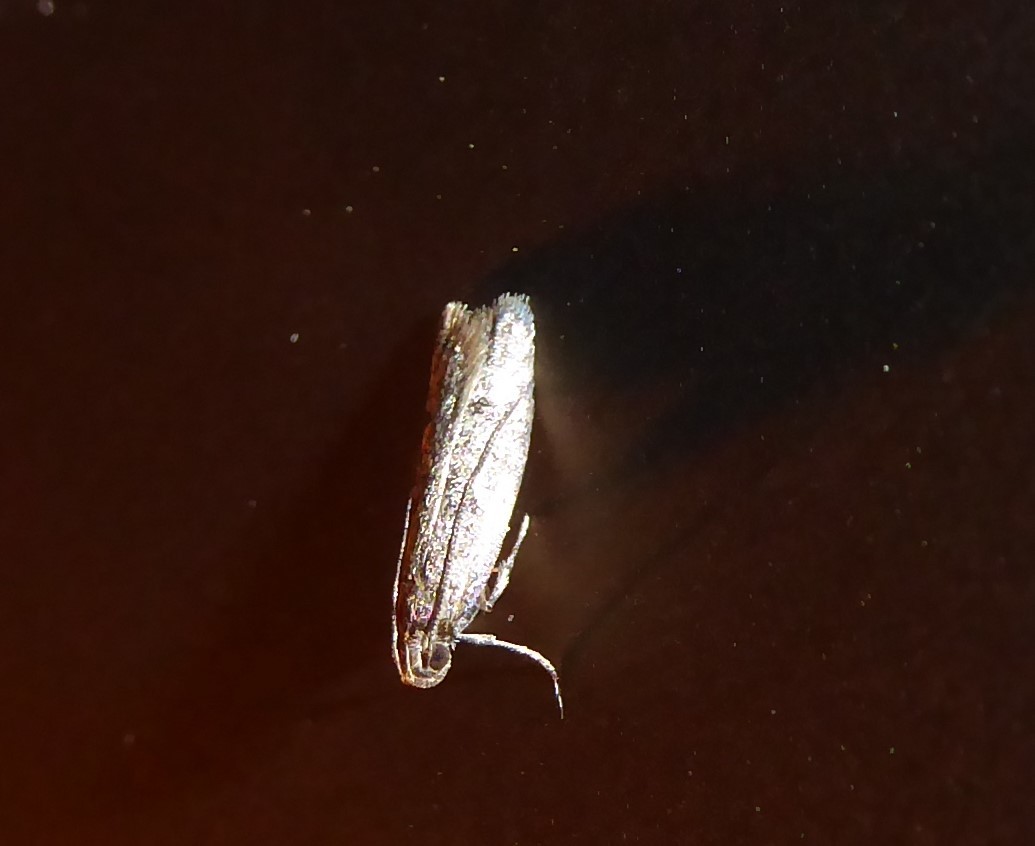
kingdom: Animalia
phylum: Arthropoda
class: Insecta
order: Lepidoptera
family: Oecophoridae
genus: Gymnobathra
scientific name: Gymnobathra tholodella
